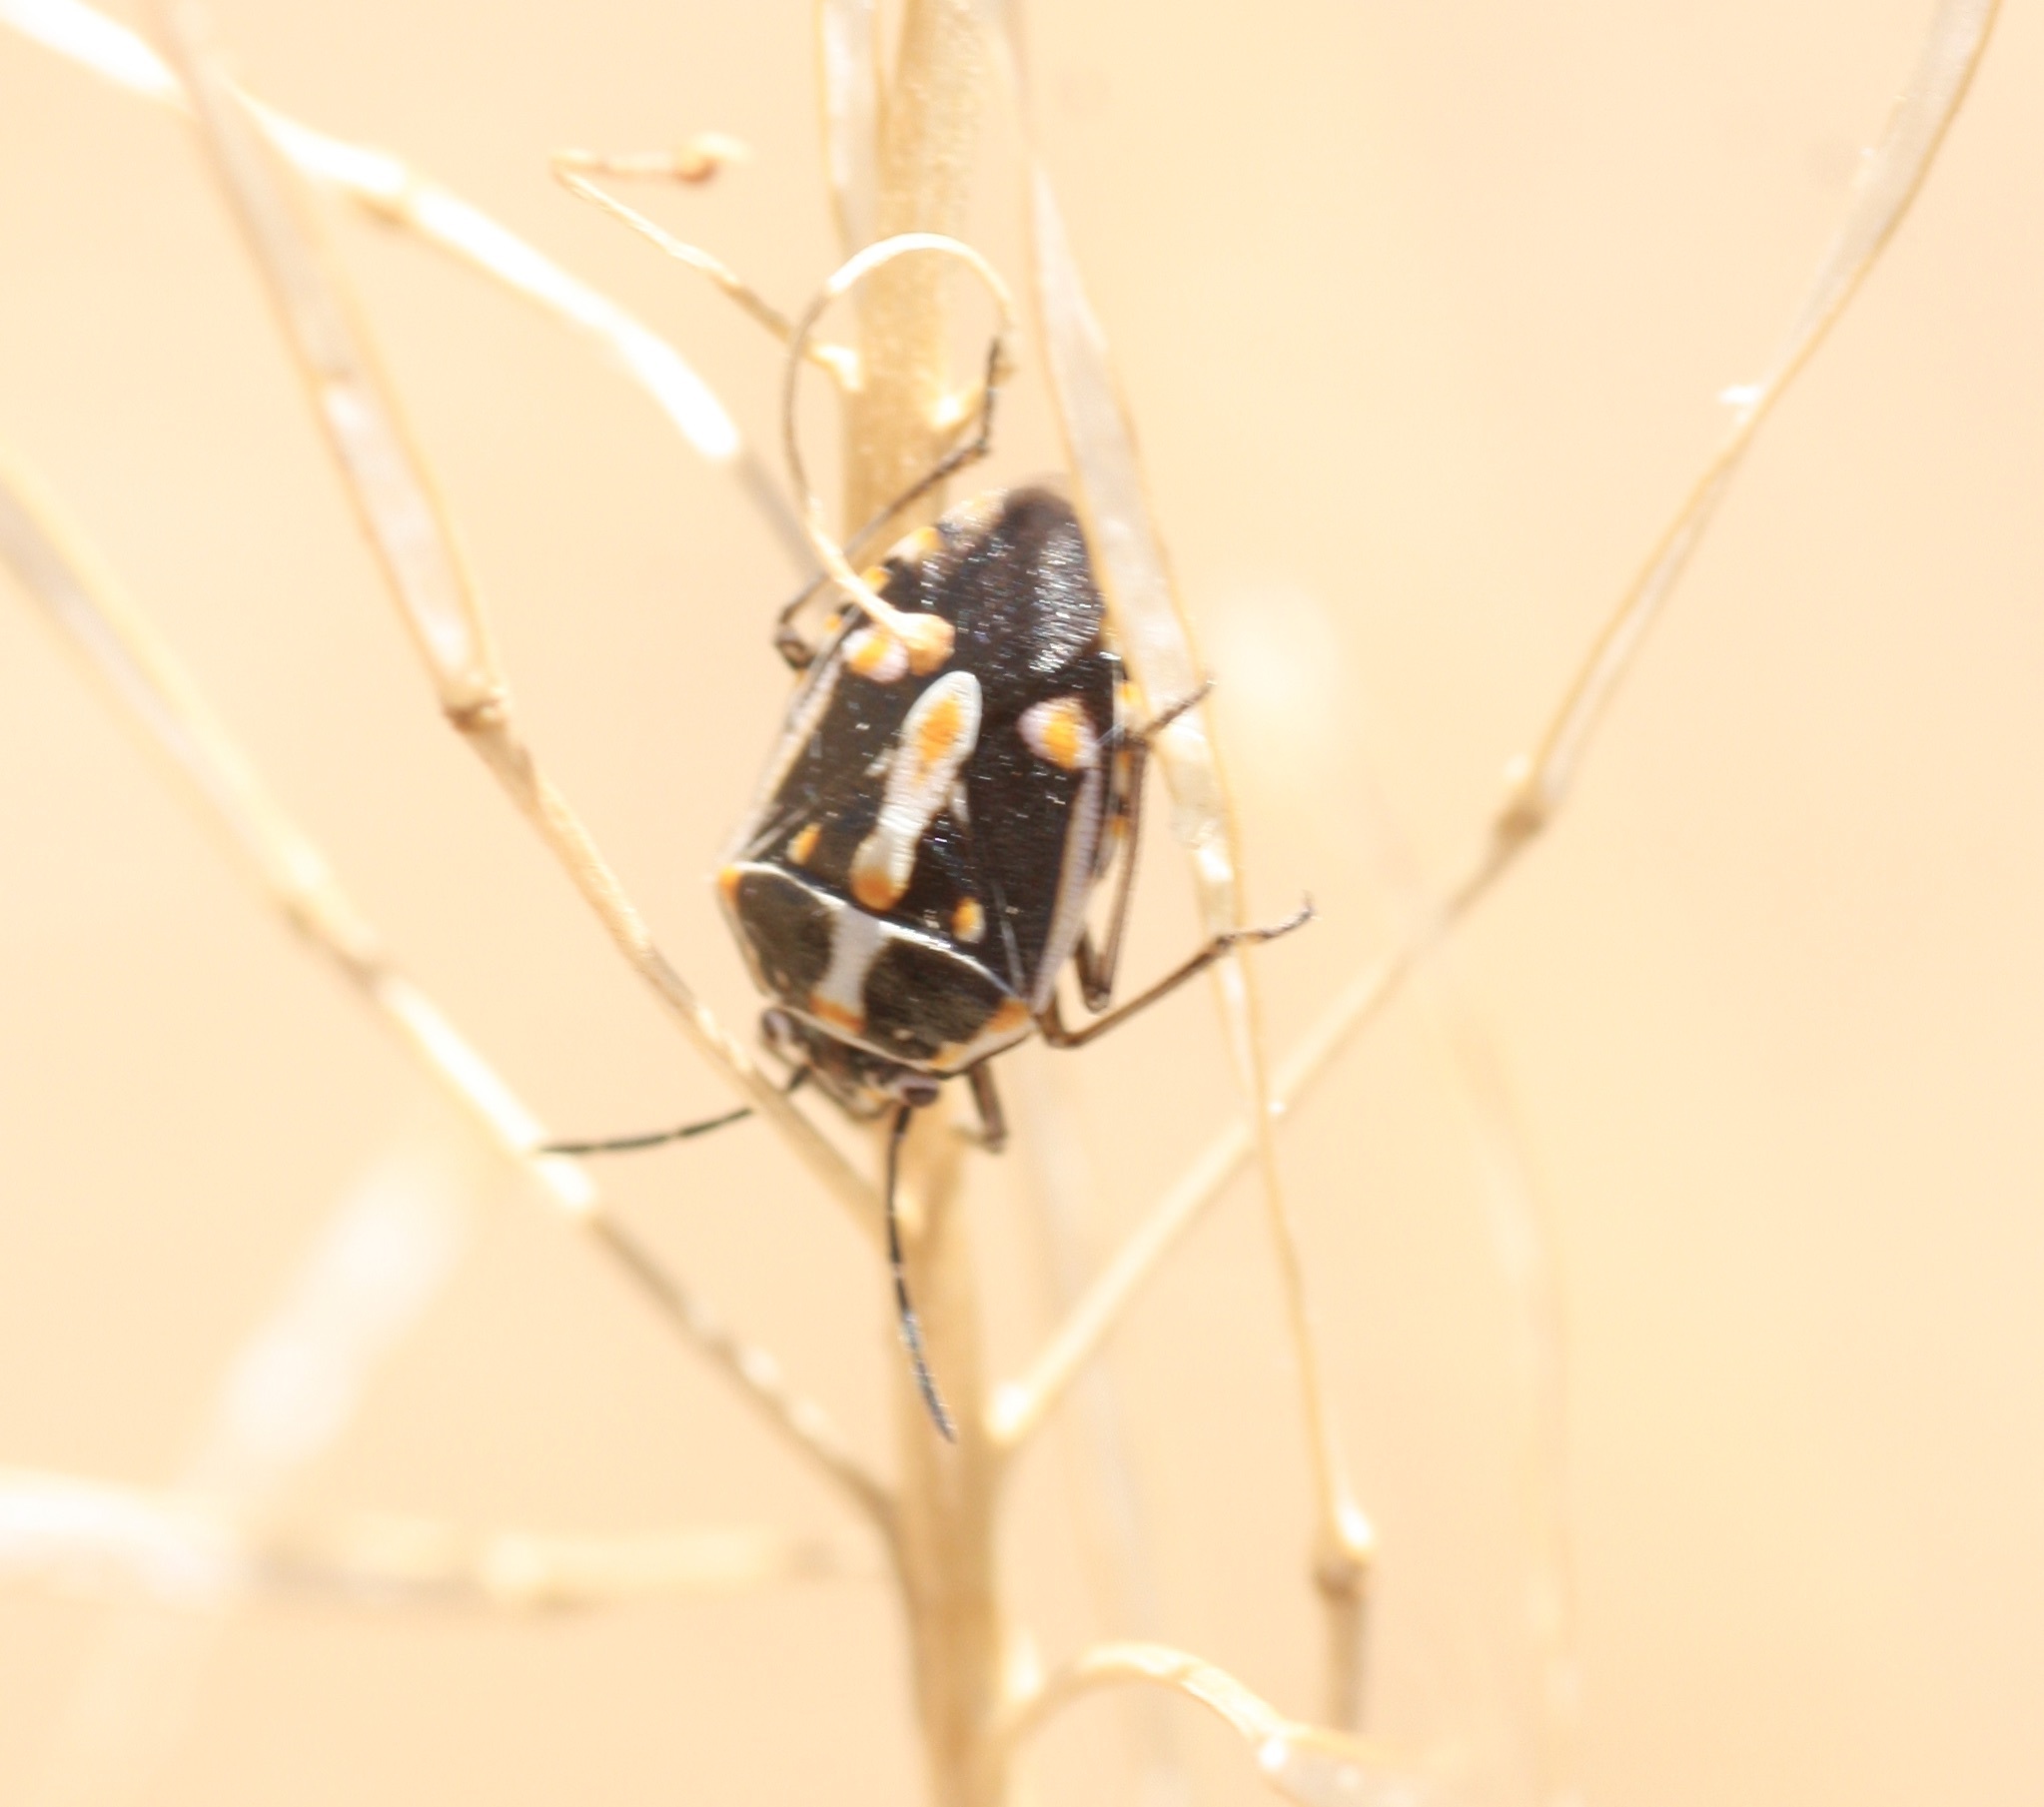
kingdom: Animalia
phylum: Arthropoda
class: Insecta
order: Hemiptera
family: Pentatomidae
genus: Bagrada
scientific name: Bagrada hilaris
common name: Bagrada bug
